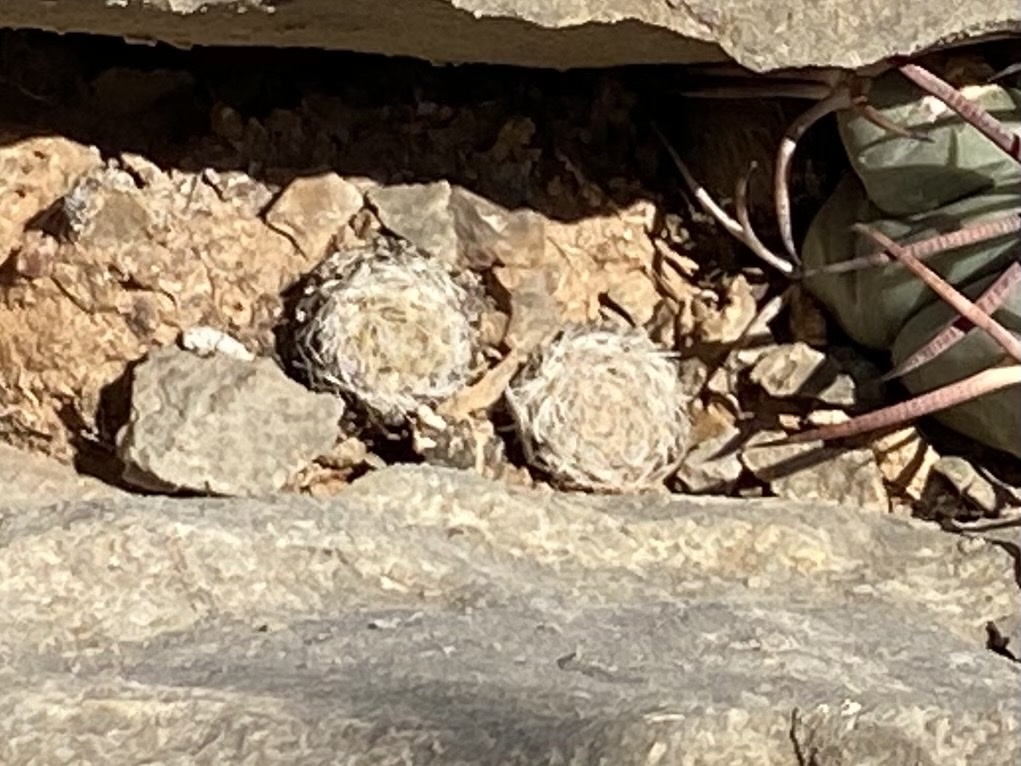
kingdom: Plantae
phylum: Tracheophyta
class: Magnoliopsida
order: Caryophyllales
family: Cactaceae
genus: Mammillaria
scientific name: Mammillaria lasiacantha
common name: Lace-spine nipple cactus
